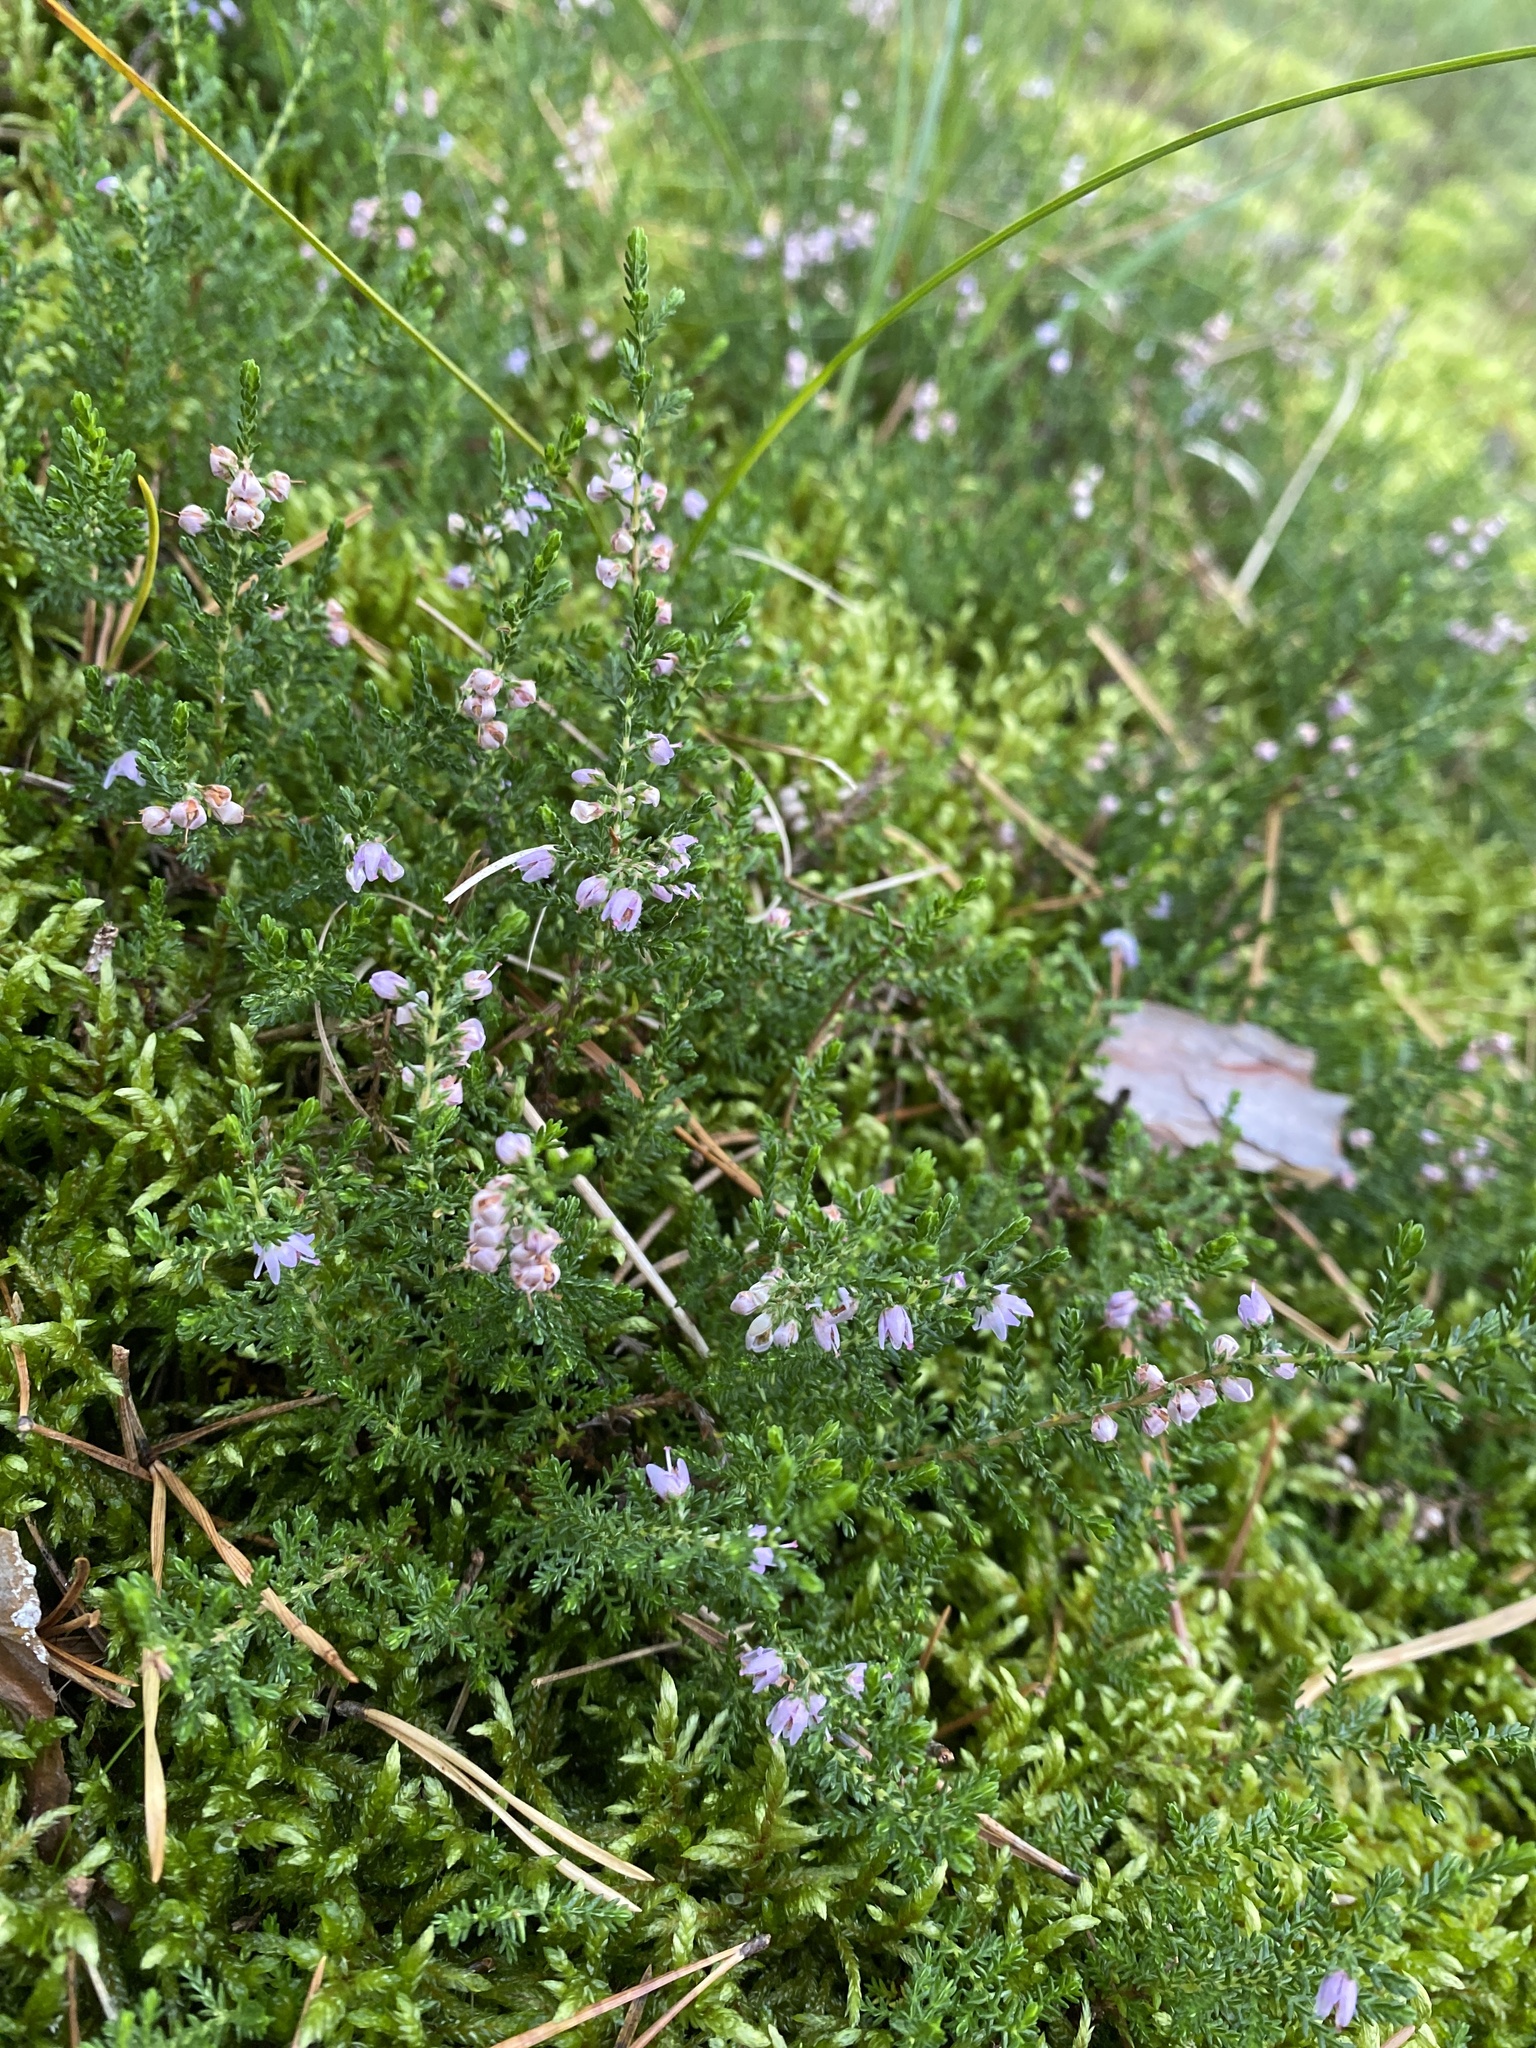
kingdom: Plantae
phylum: Tracheophyta
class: Magnoliopsida
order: Ericales
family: Ericaceae
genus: Calluna
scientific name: Calluna vulgaris
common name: Heather
